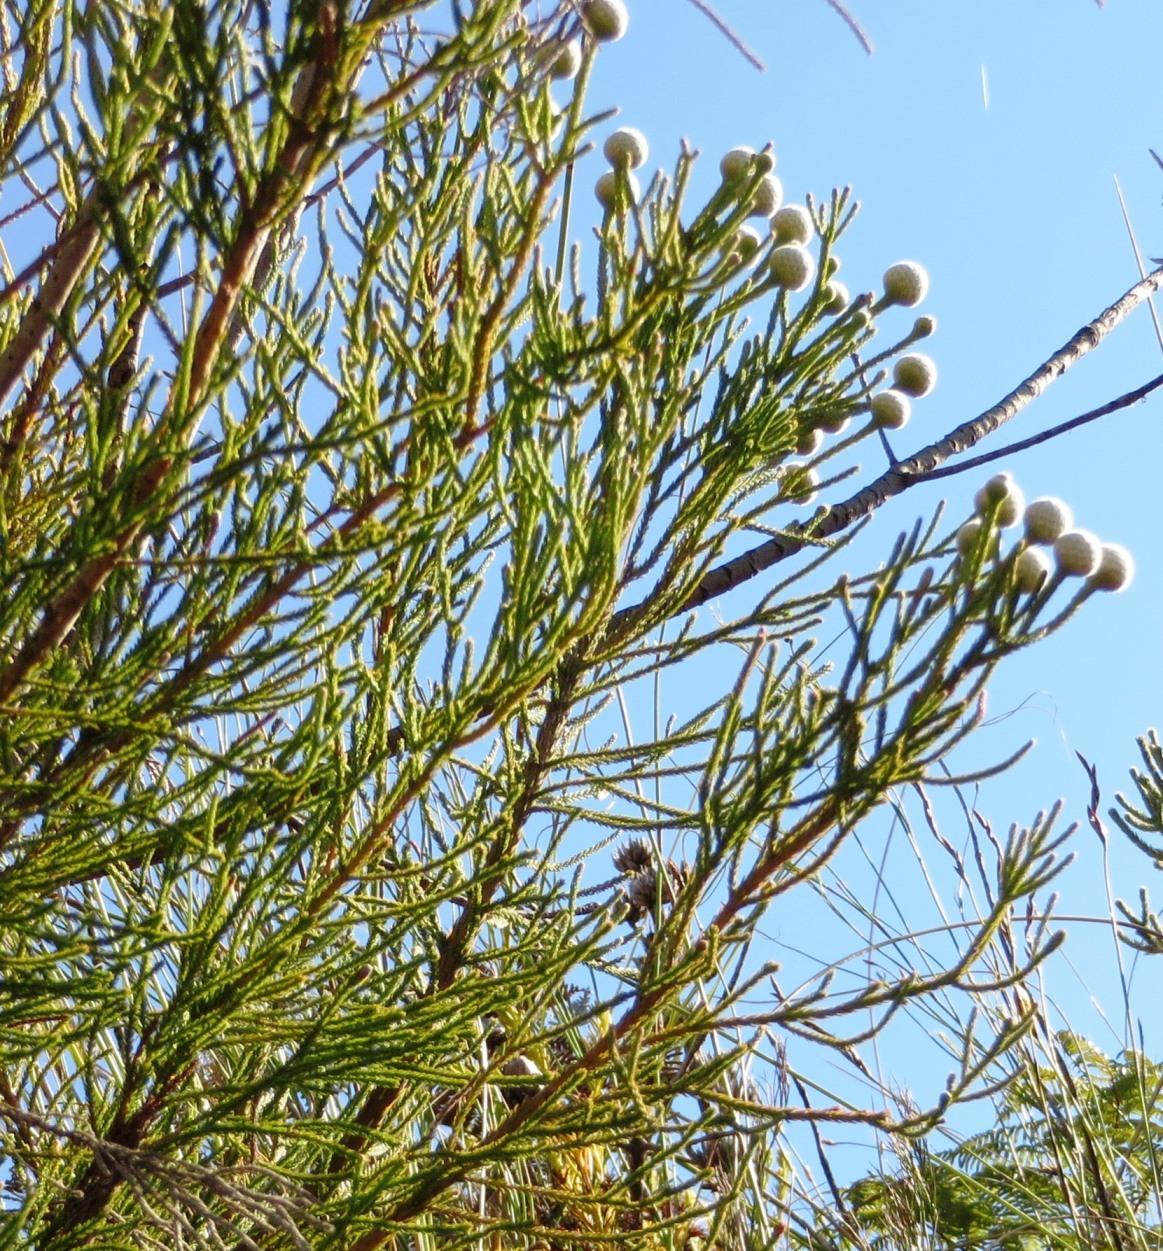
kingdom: Plantae
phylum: Tracheophyta
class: Magnoliopsida
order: Bruniales
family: Bruniaceae
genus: Brunia
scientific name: Brunia noduliflora
